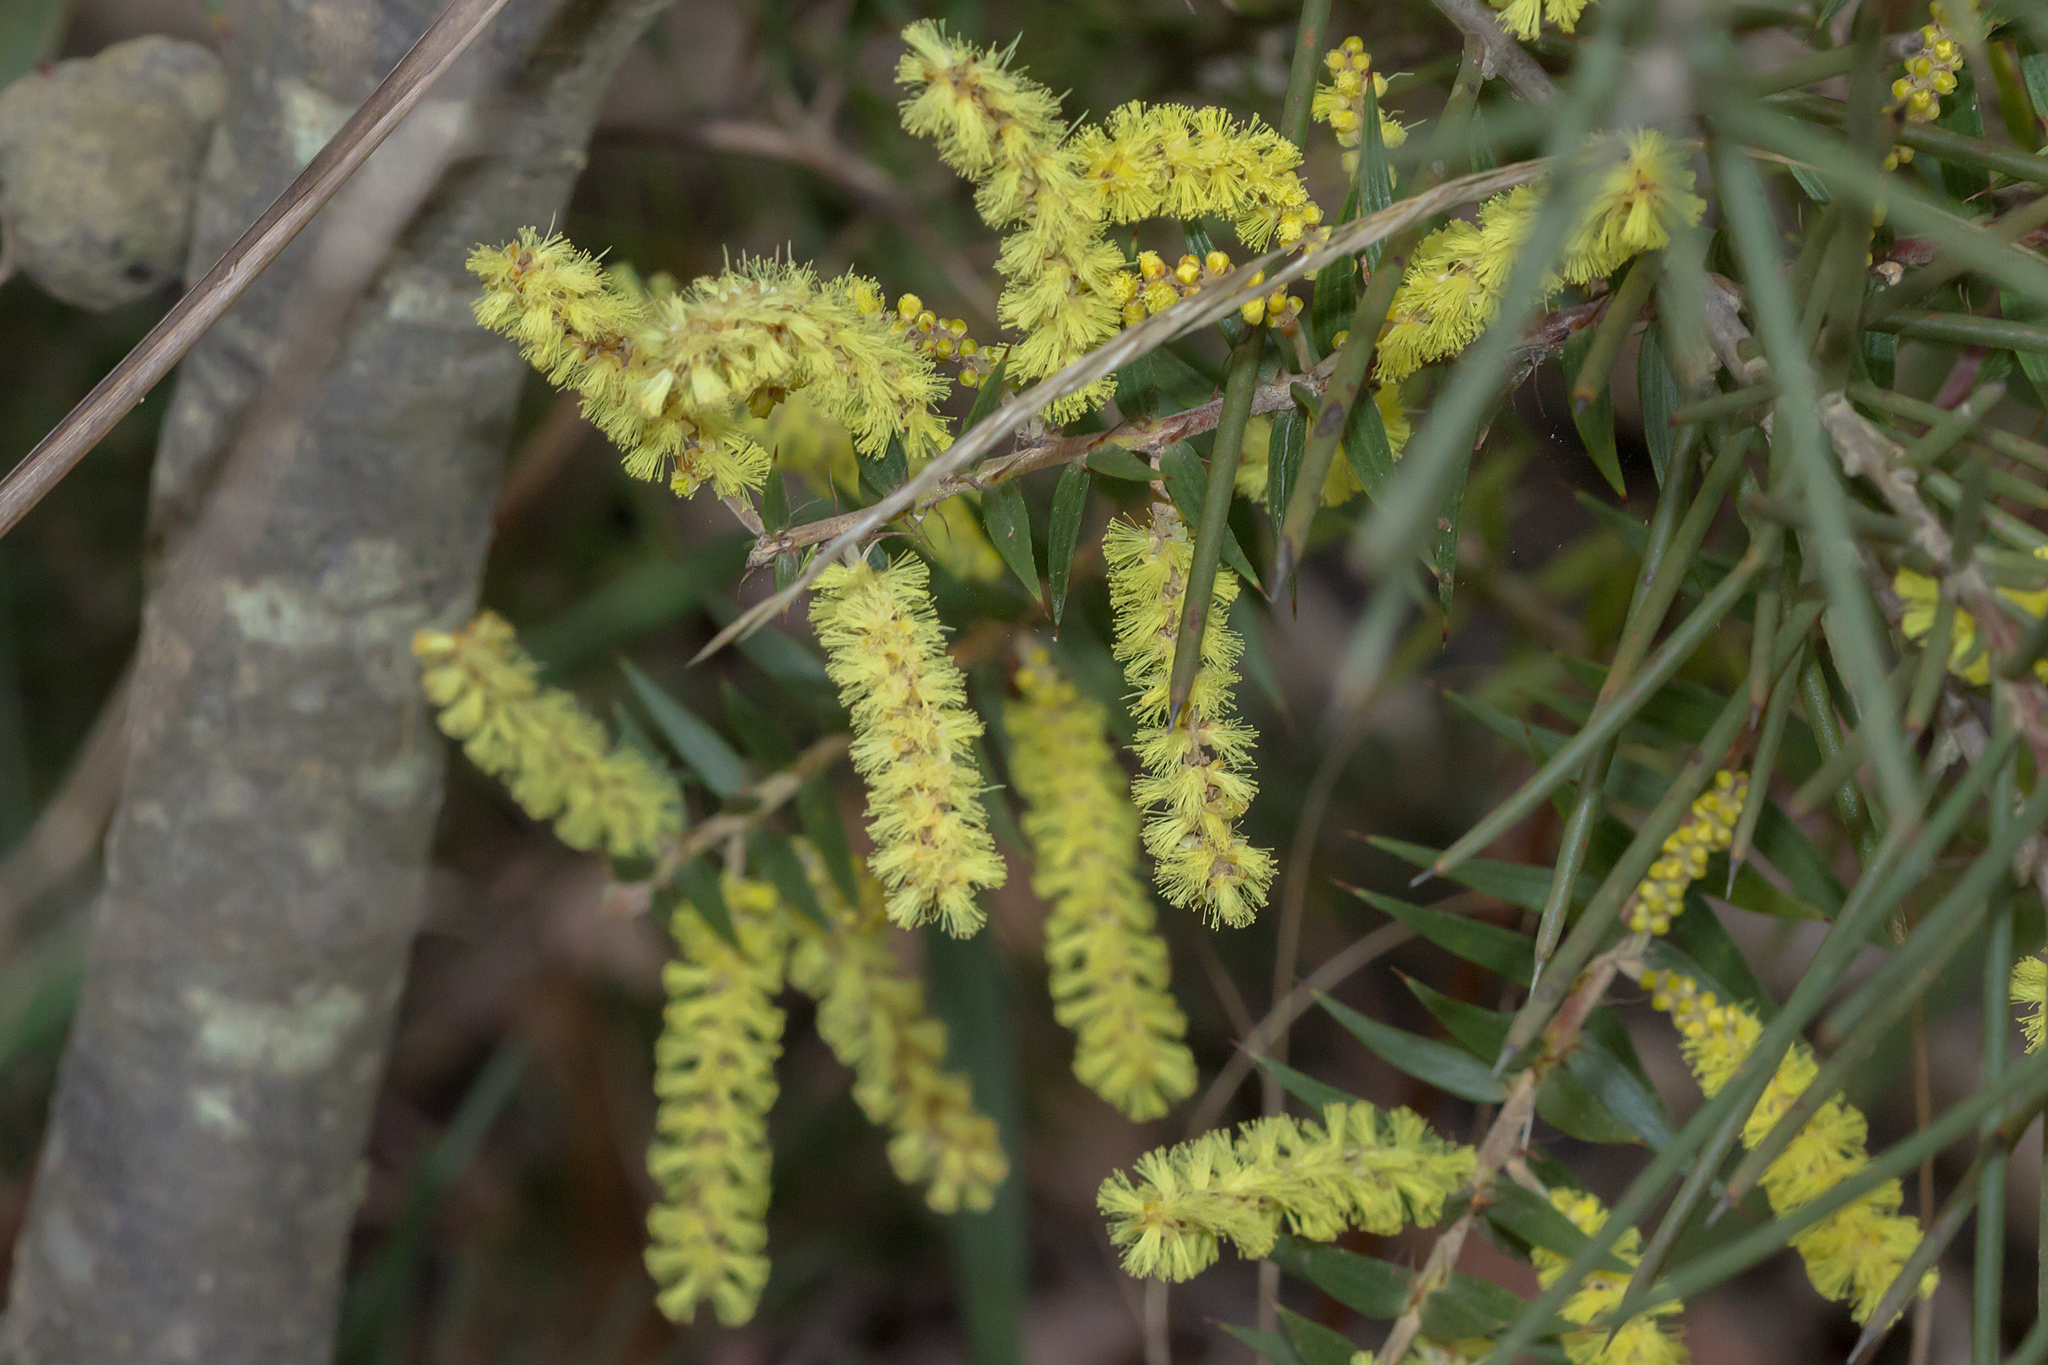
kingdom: Plantae
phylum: Tracheophyta
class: Magnoliopsida
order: Fabales
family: Fabaceae
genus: Acacia
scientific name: Acacia oxycedrus
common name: Spike wattle
